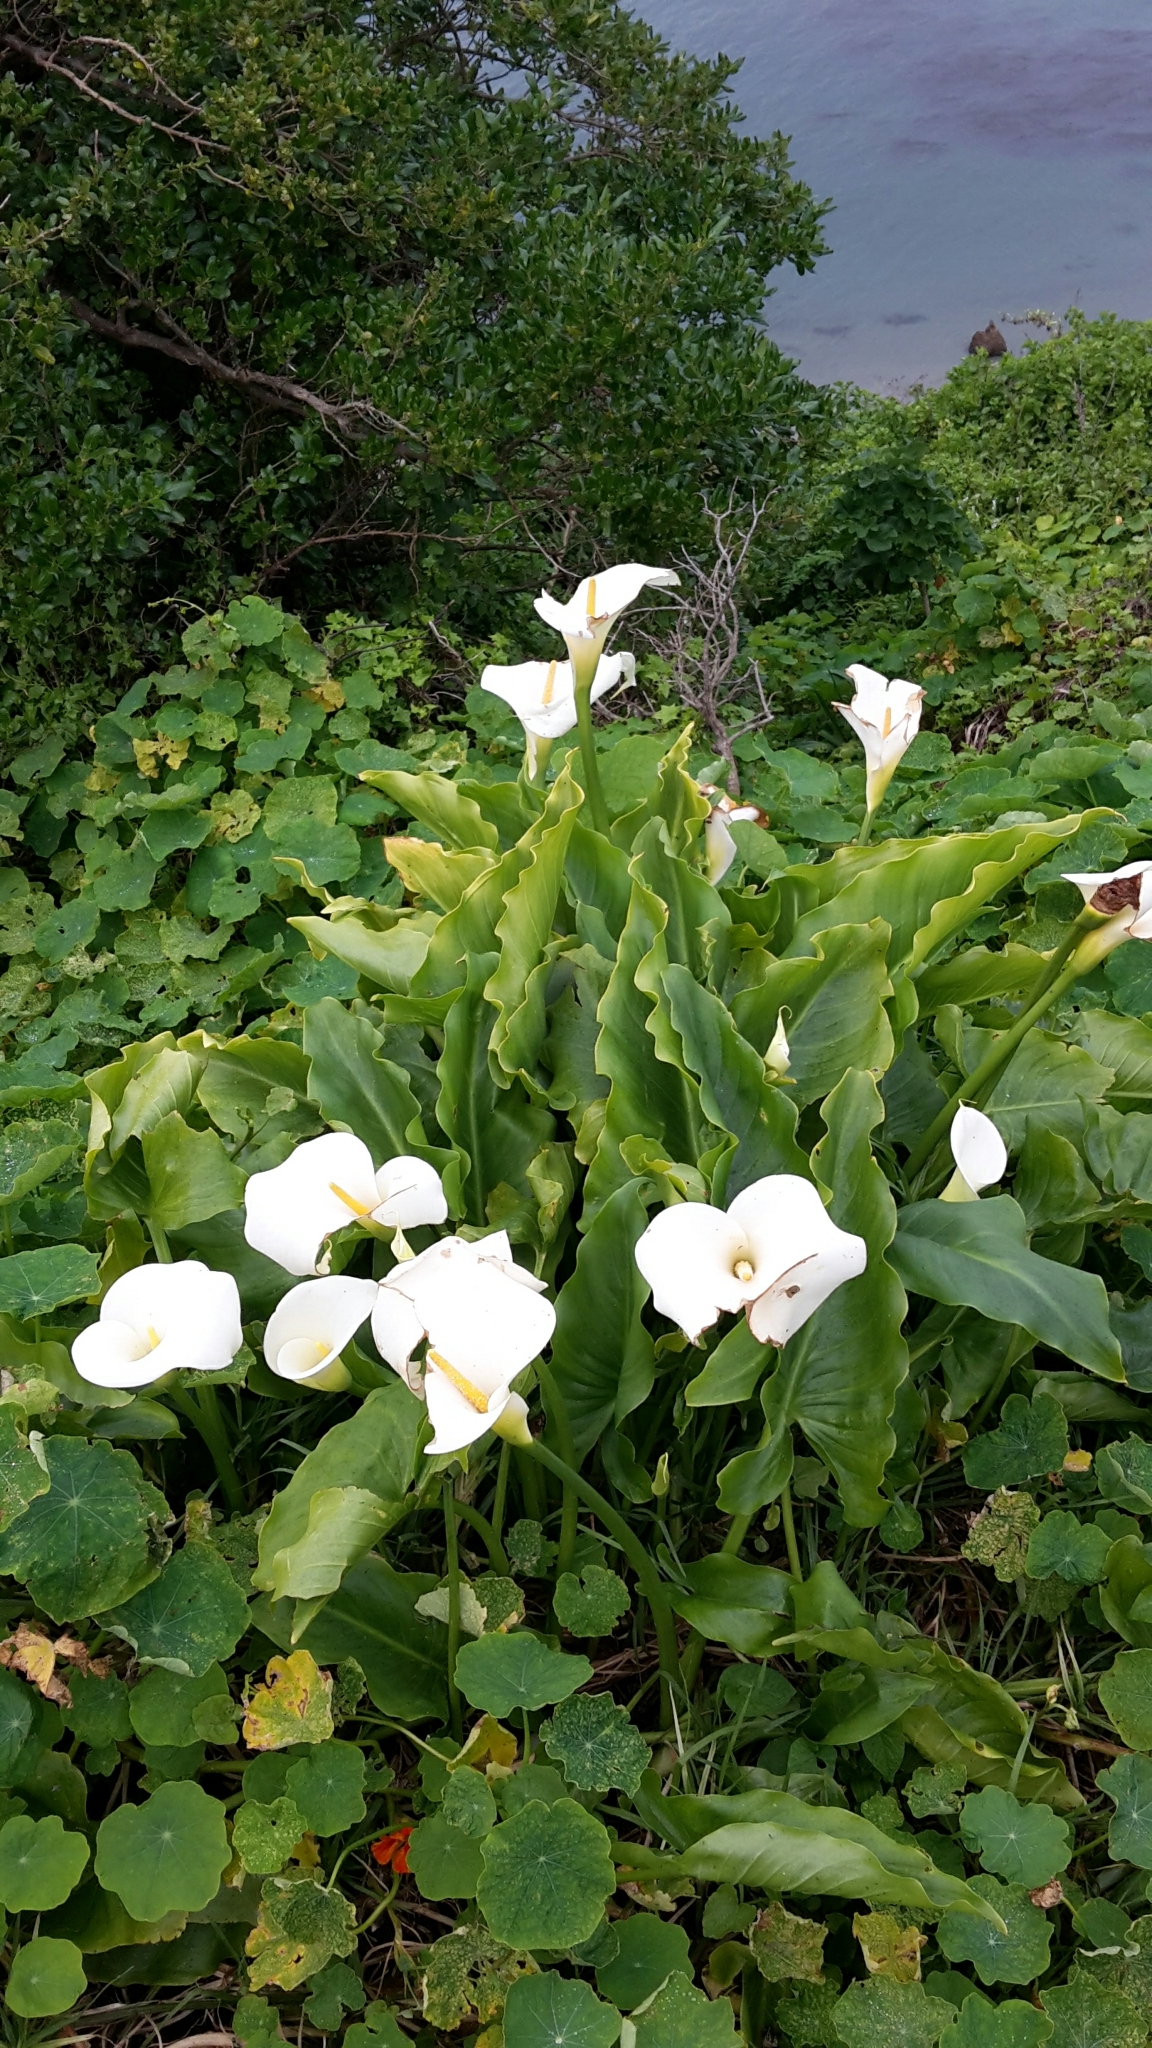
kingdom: Plantae
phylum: Tracheophyta
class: Liliopsida
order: Alismatales
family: Araceae
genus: Zantedeschia
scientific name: Zantedeschia aethiopica
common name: Altar-lily
